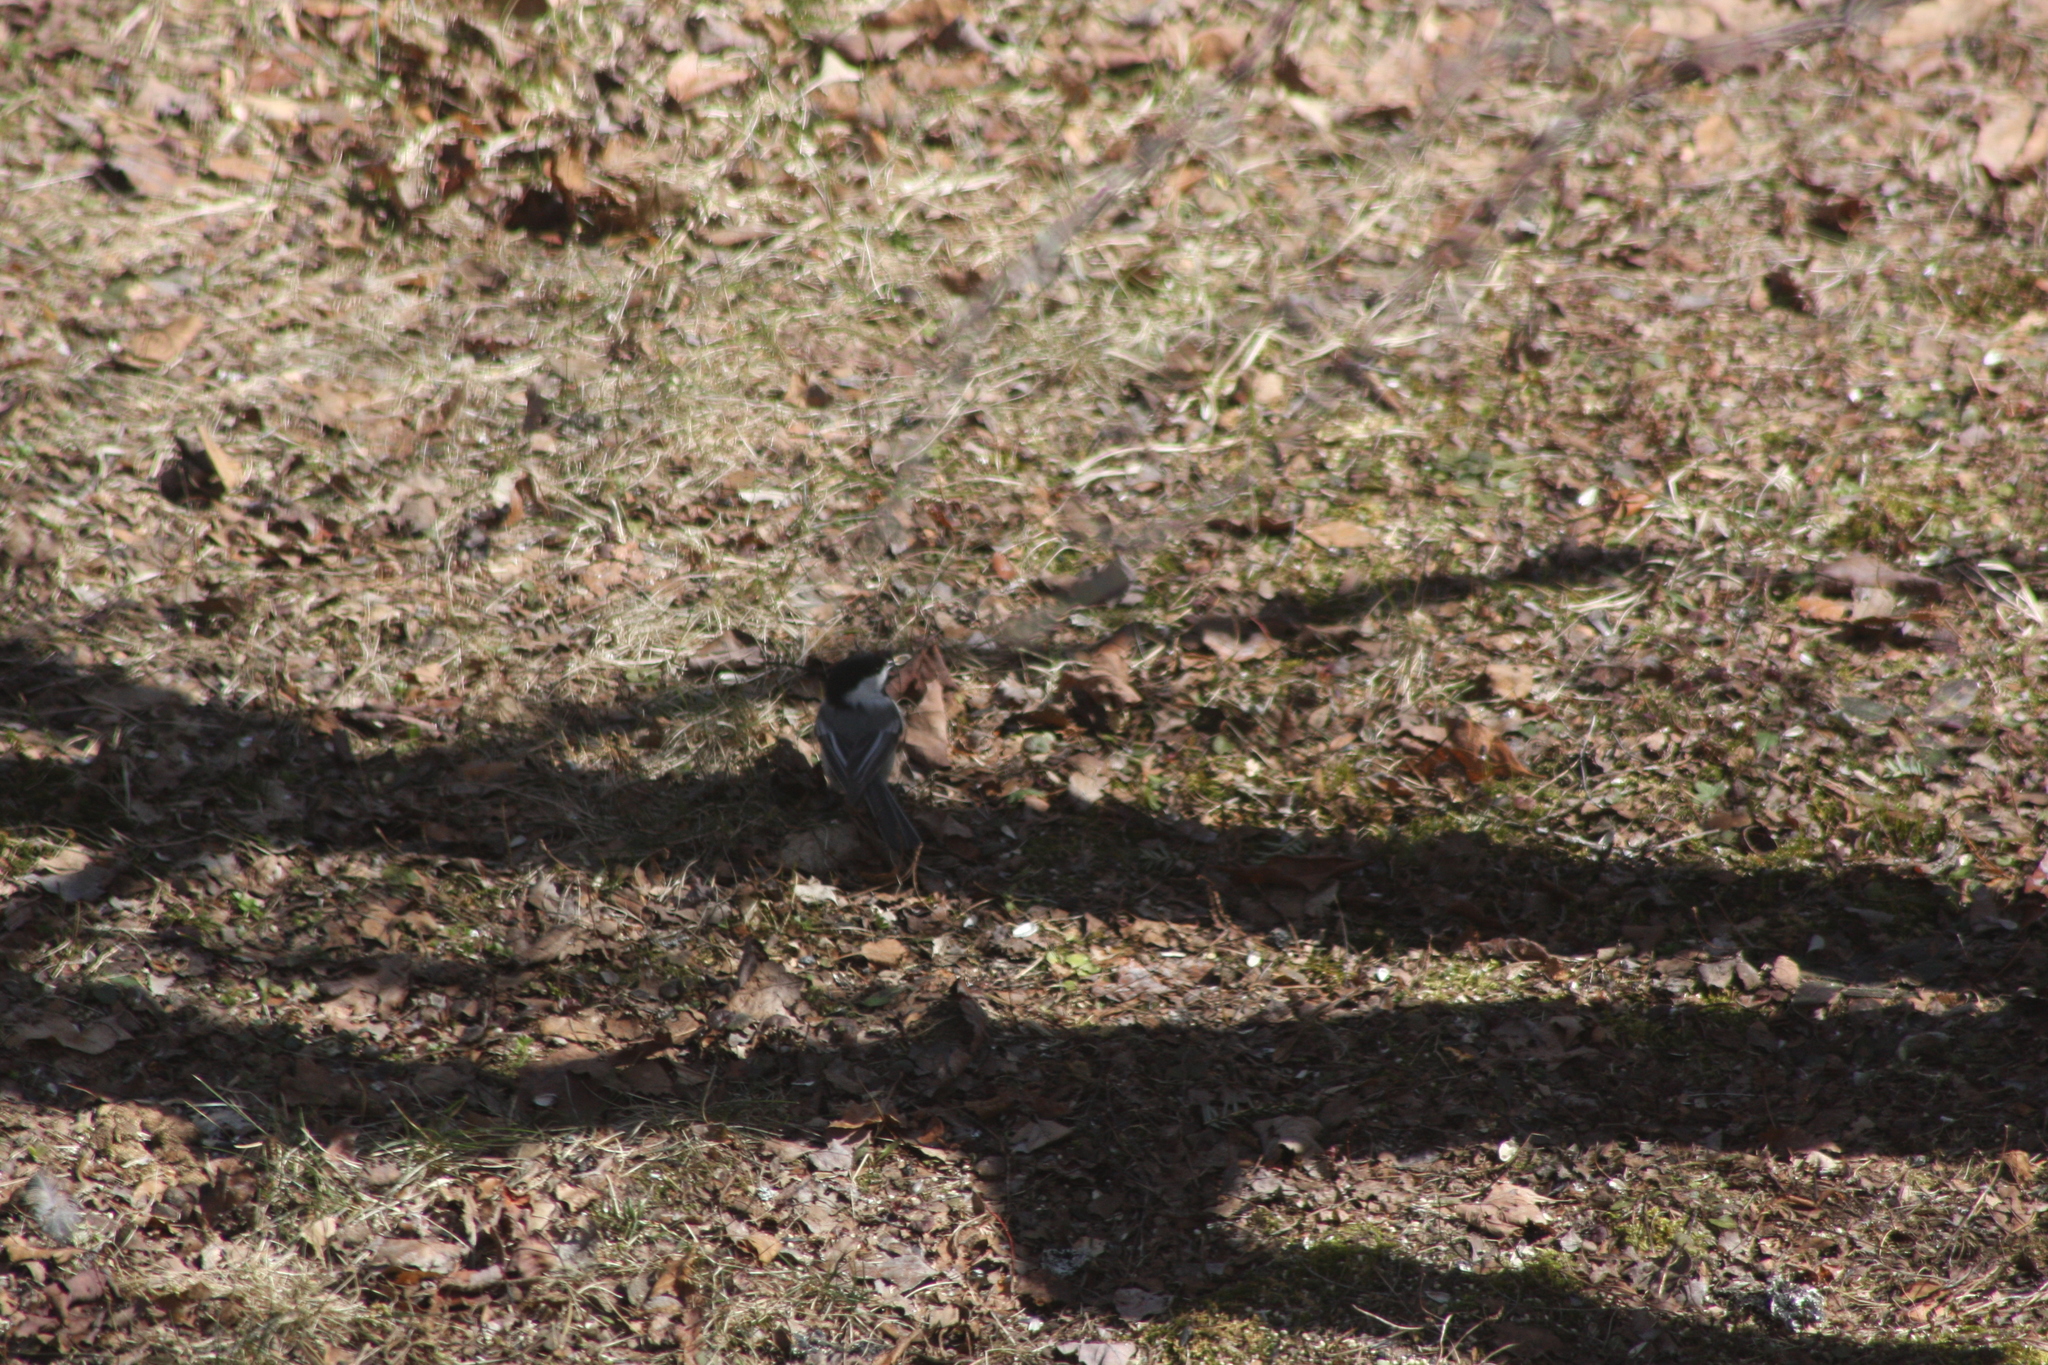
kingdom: Animalia
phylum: Chordata
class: Aves
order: Passeriformes
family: Paridae
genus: Poecile
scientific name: Poecile atricapillus
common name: Black-capped chickadee
